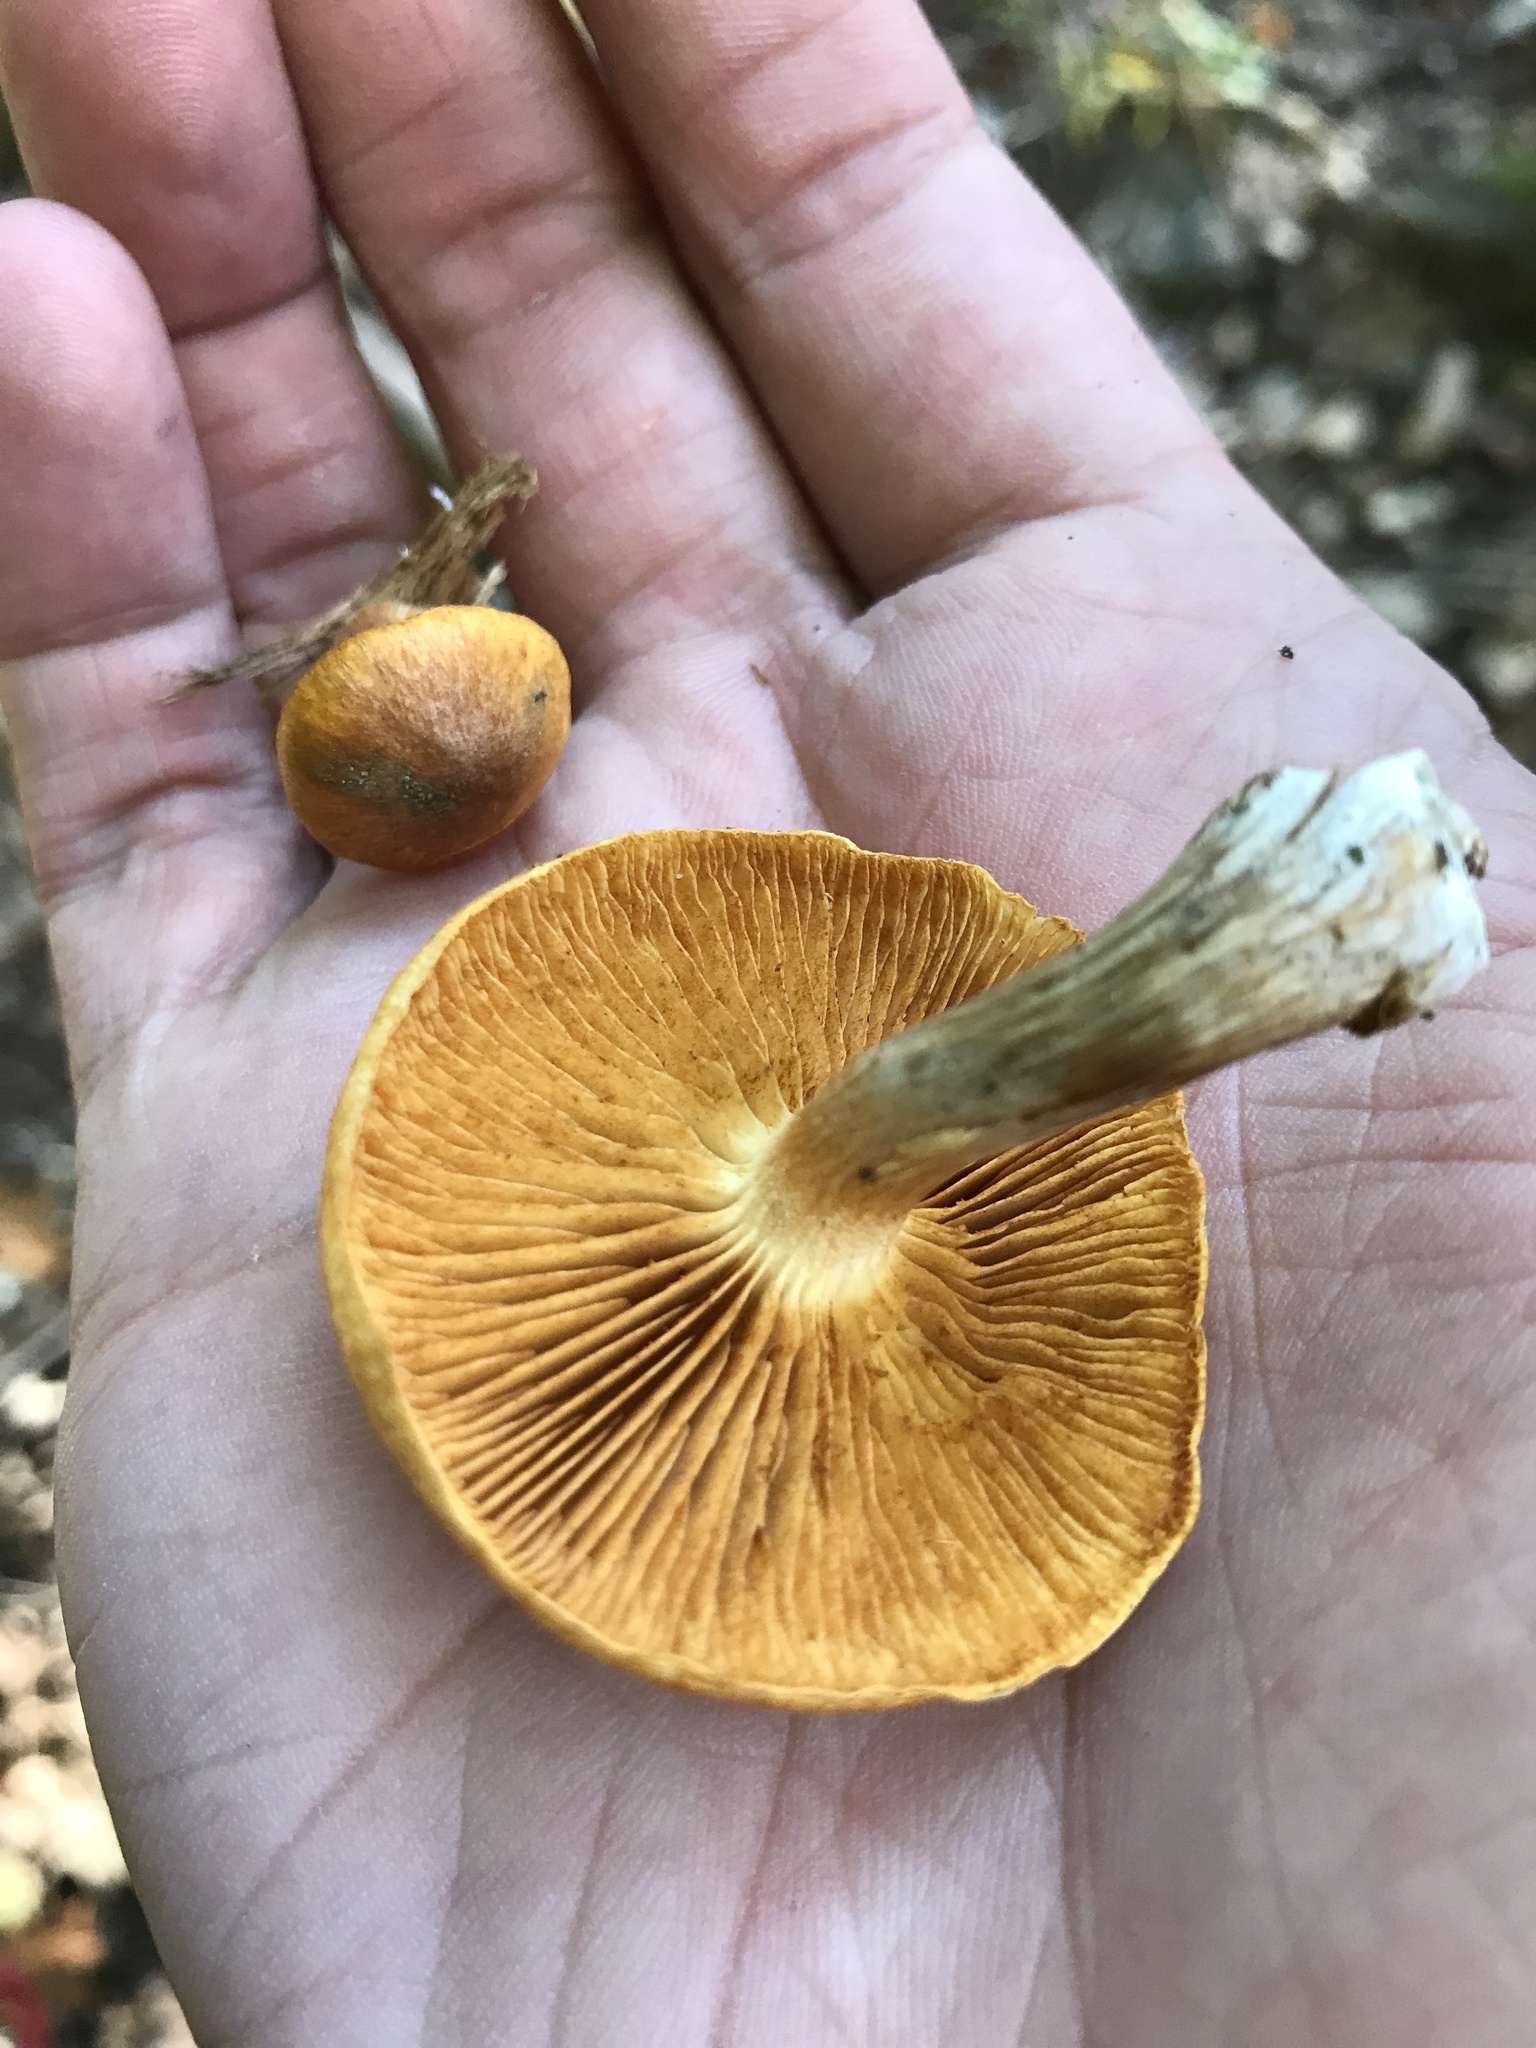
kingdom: Fungi
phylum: Basidiomycota
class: Agaricomycetes
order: Agaricales
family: Hymenogastraceae
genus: Gymnopilus
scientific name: Gymnopilus penetrans
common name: Common rustgill
